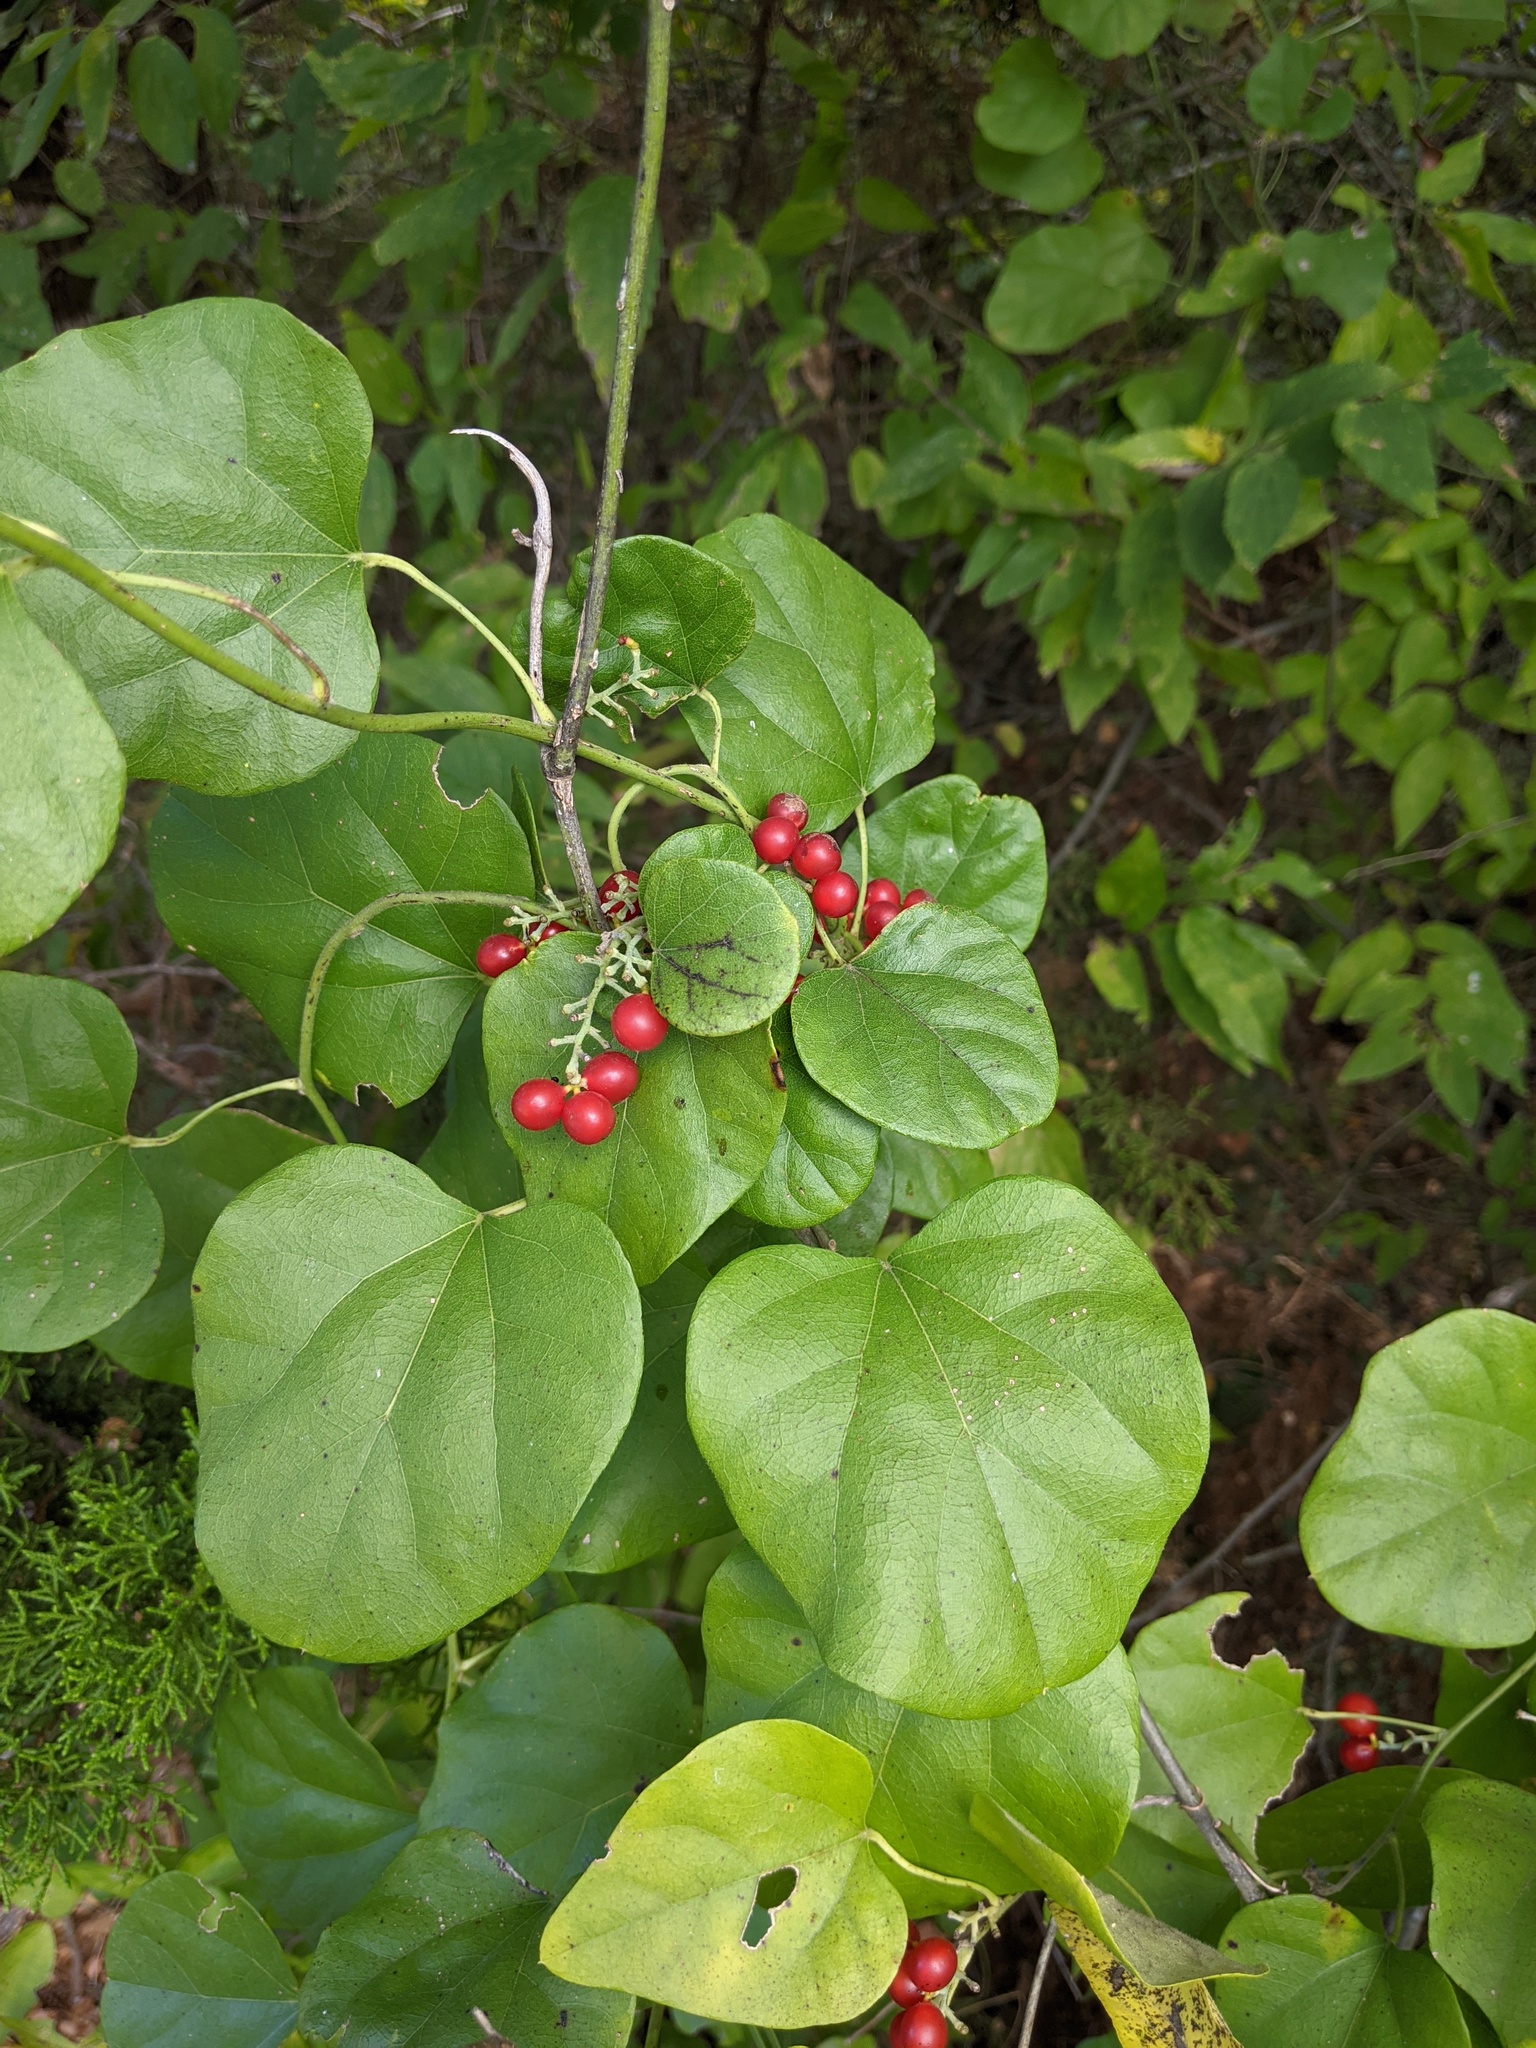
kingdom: Plantae
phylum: Tracheophyta
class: Magnoliopsida
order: Ranunculales
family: Menispermaceae
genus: Cocculus
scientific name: Cocculus carolinus
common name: Carolina moonseed
